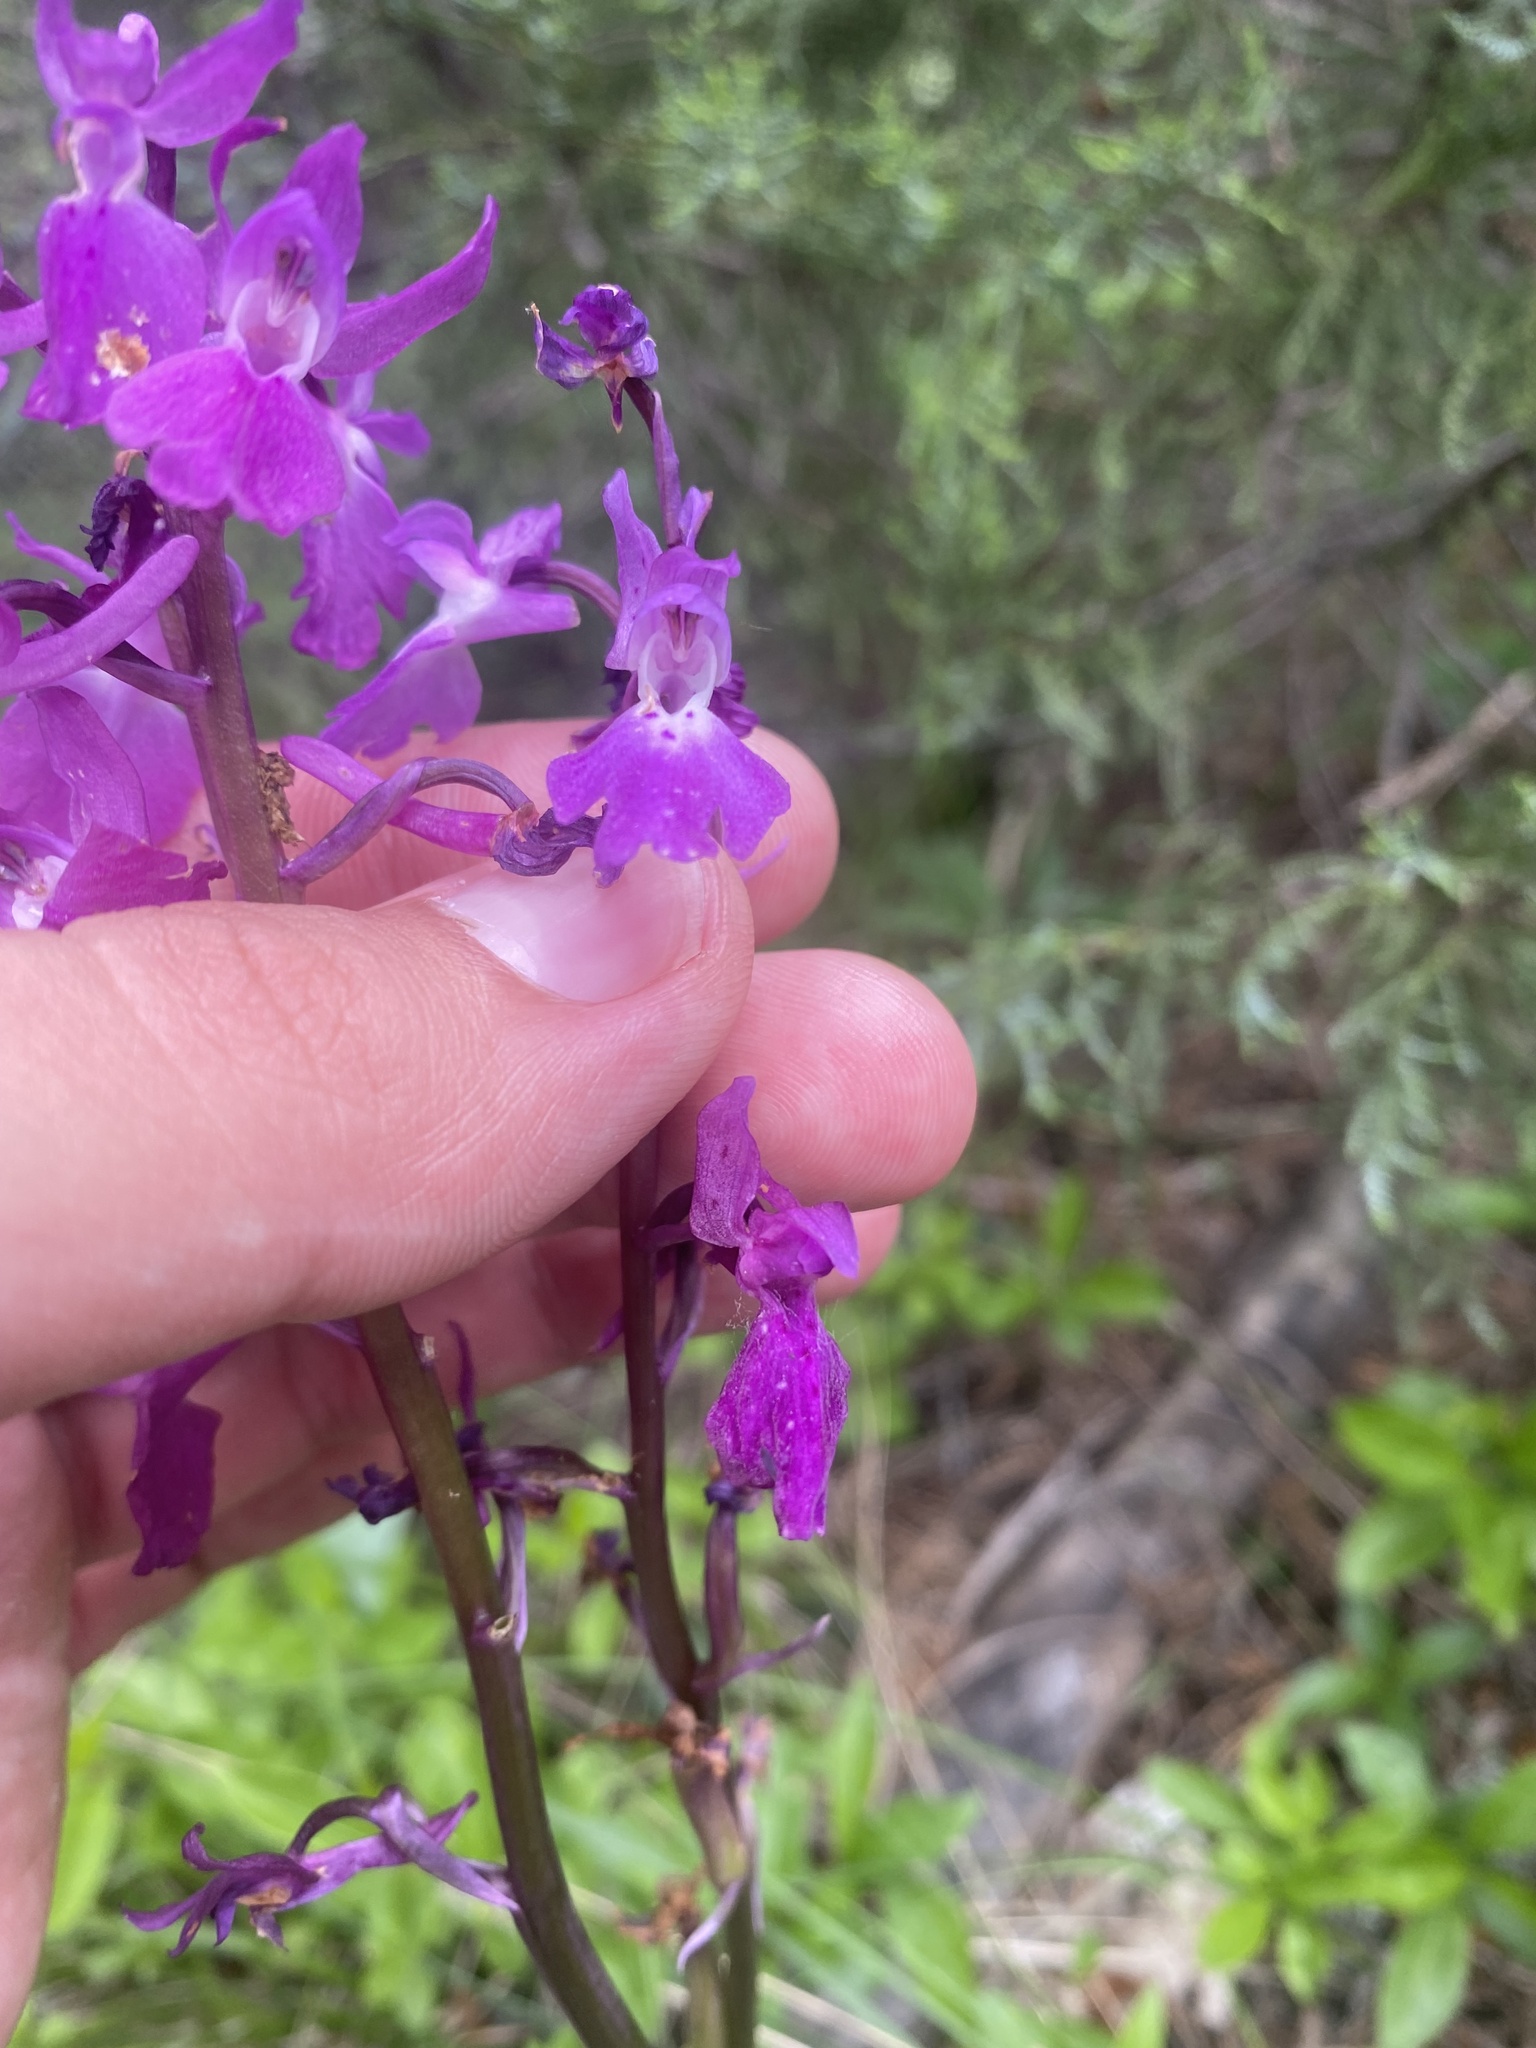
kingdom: Plantae
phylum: Tracheophyta
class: Liliopsida
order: Asparagales
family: Orchidaceae
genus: Orchis
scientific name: Orchis mascula
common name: Early-purple orchid
